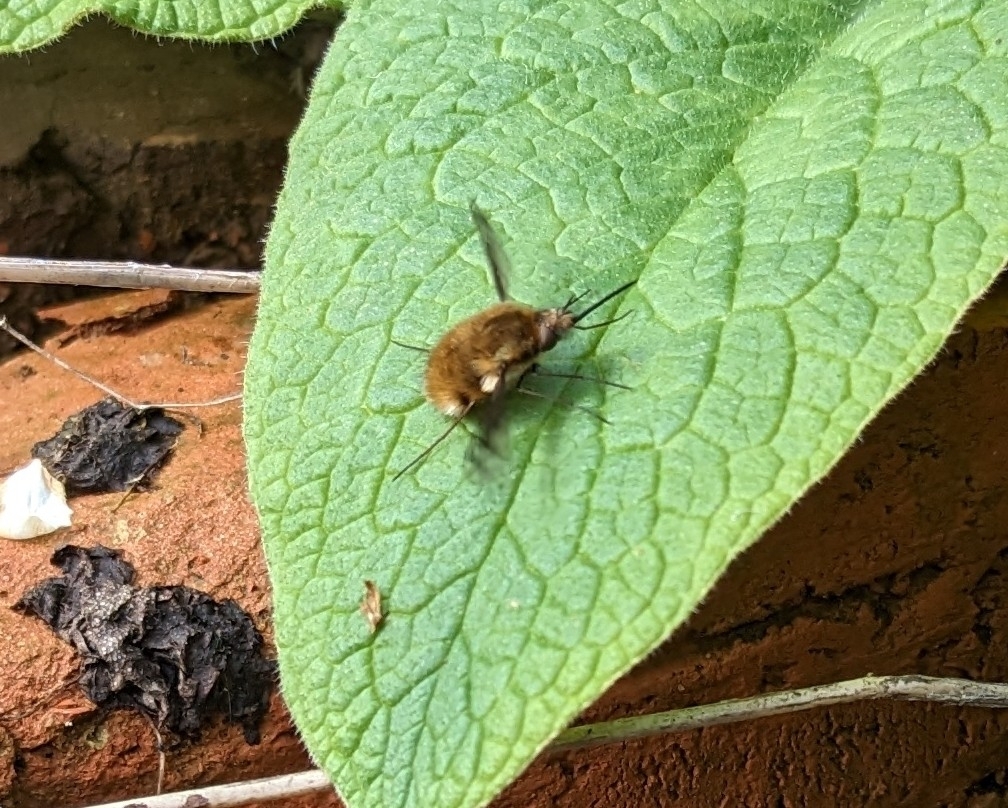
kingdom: Animalia
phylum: Arthropoda
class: Insecta
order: Diptera
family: Bombyliidae
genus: Bombylius
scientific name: Bombylius major
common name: Bee fly
